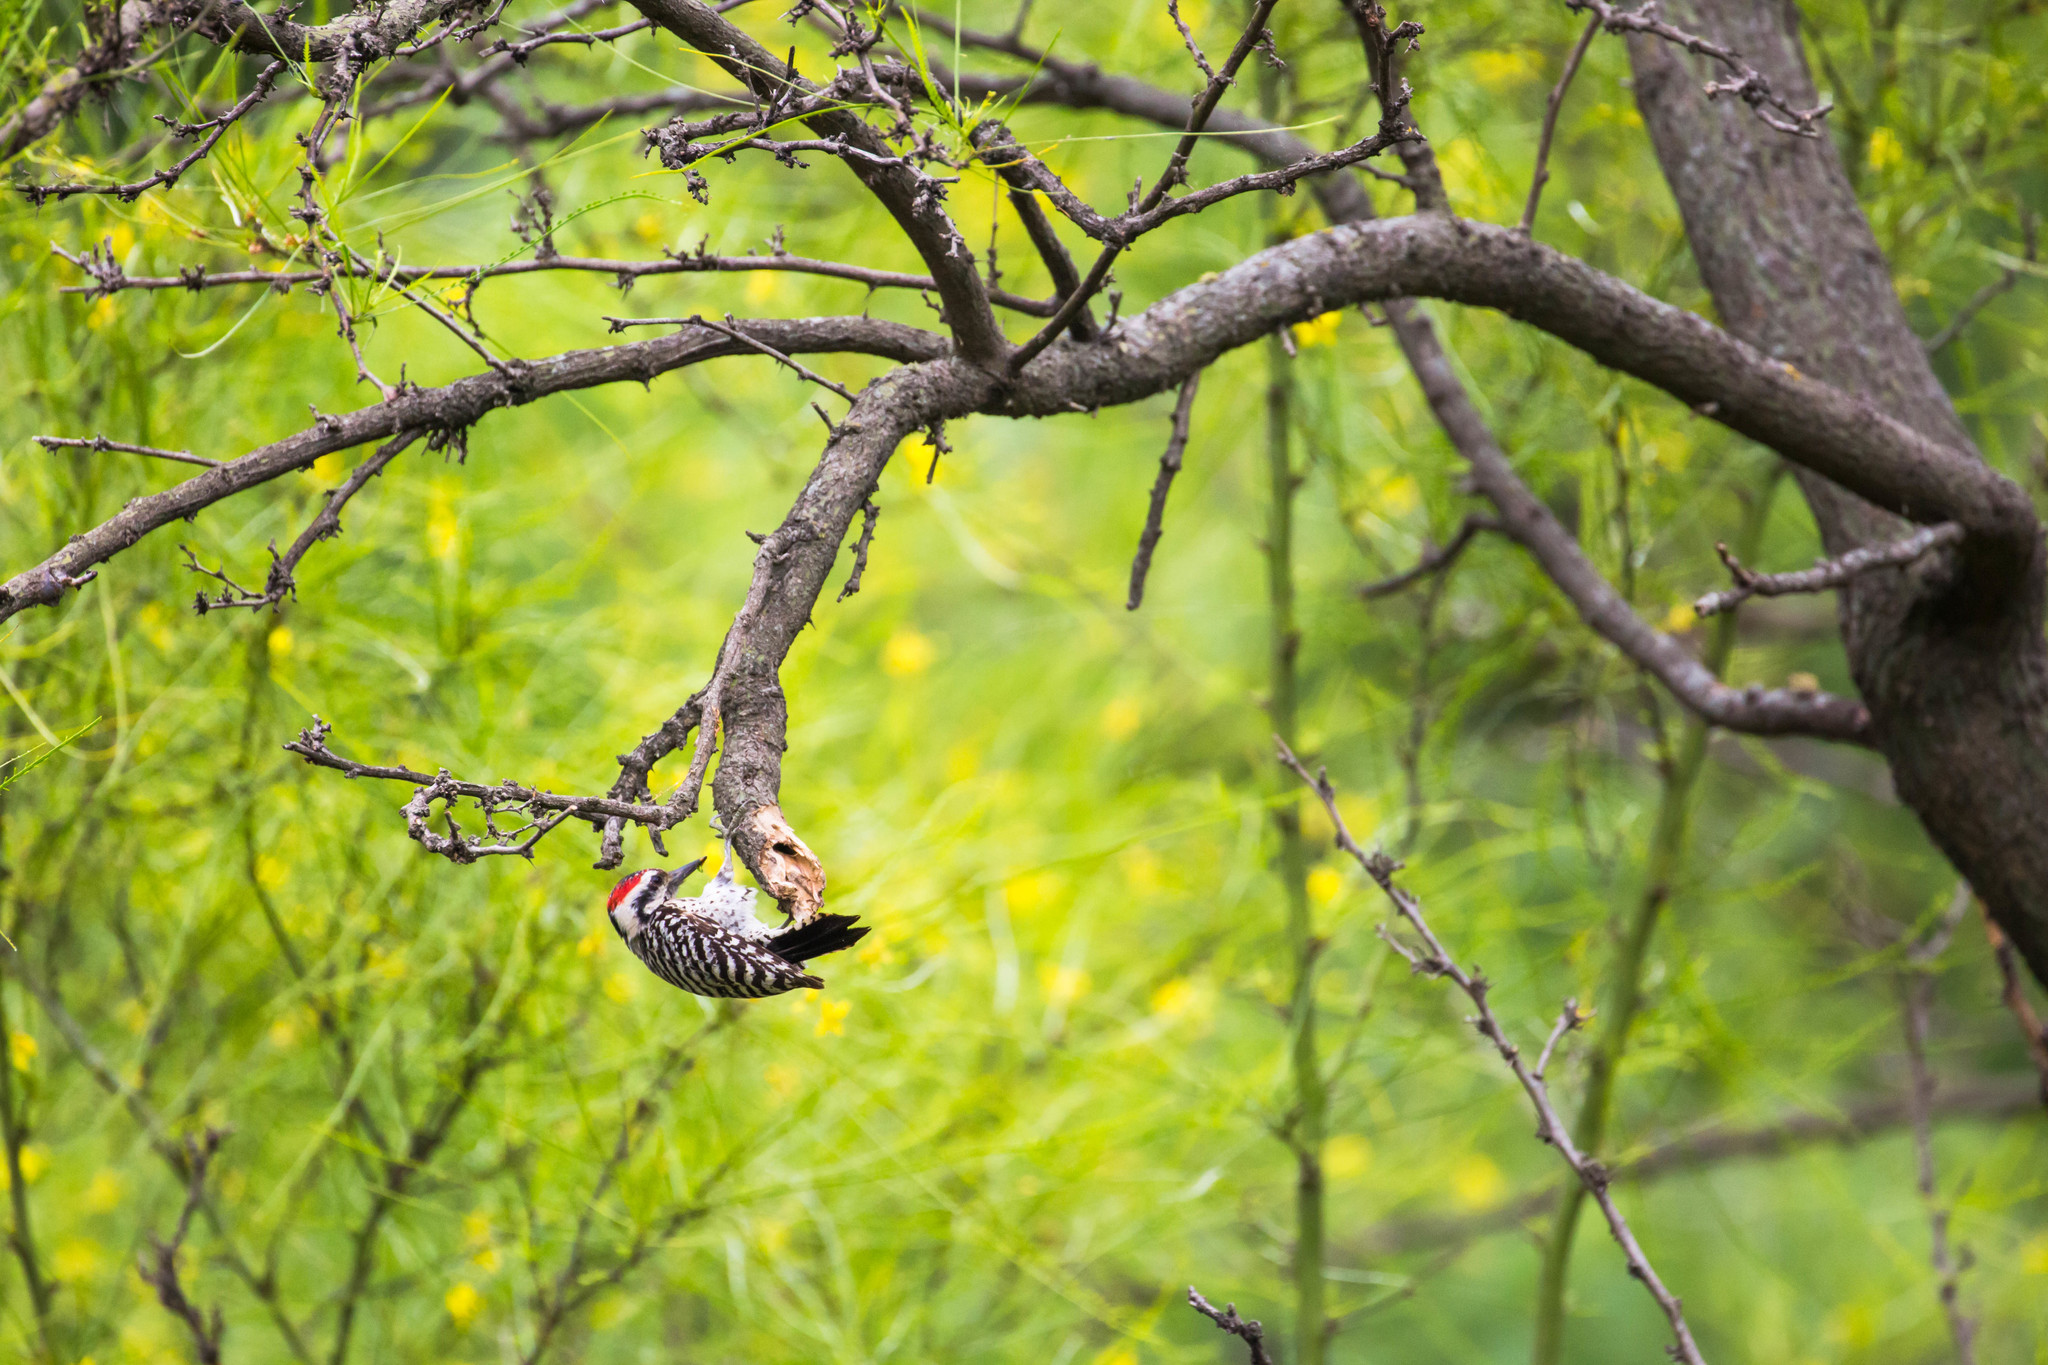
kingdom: Animalia
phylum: Chordata
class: Aves
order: Piciformes
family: Picidae
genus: Dryobates
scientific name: Dryobates scalaris
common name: Ladder-backed woodpecker
